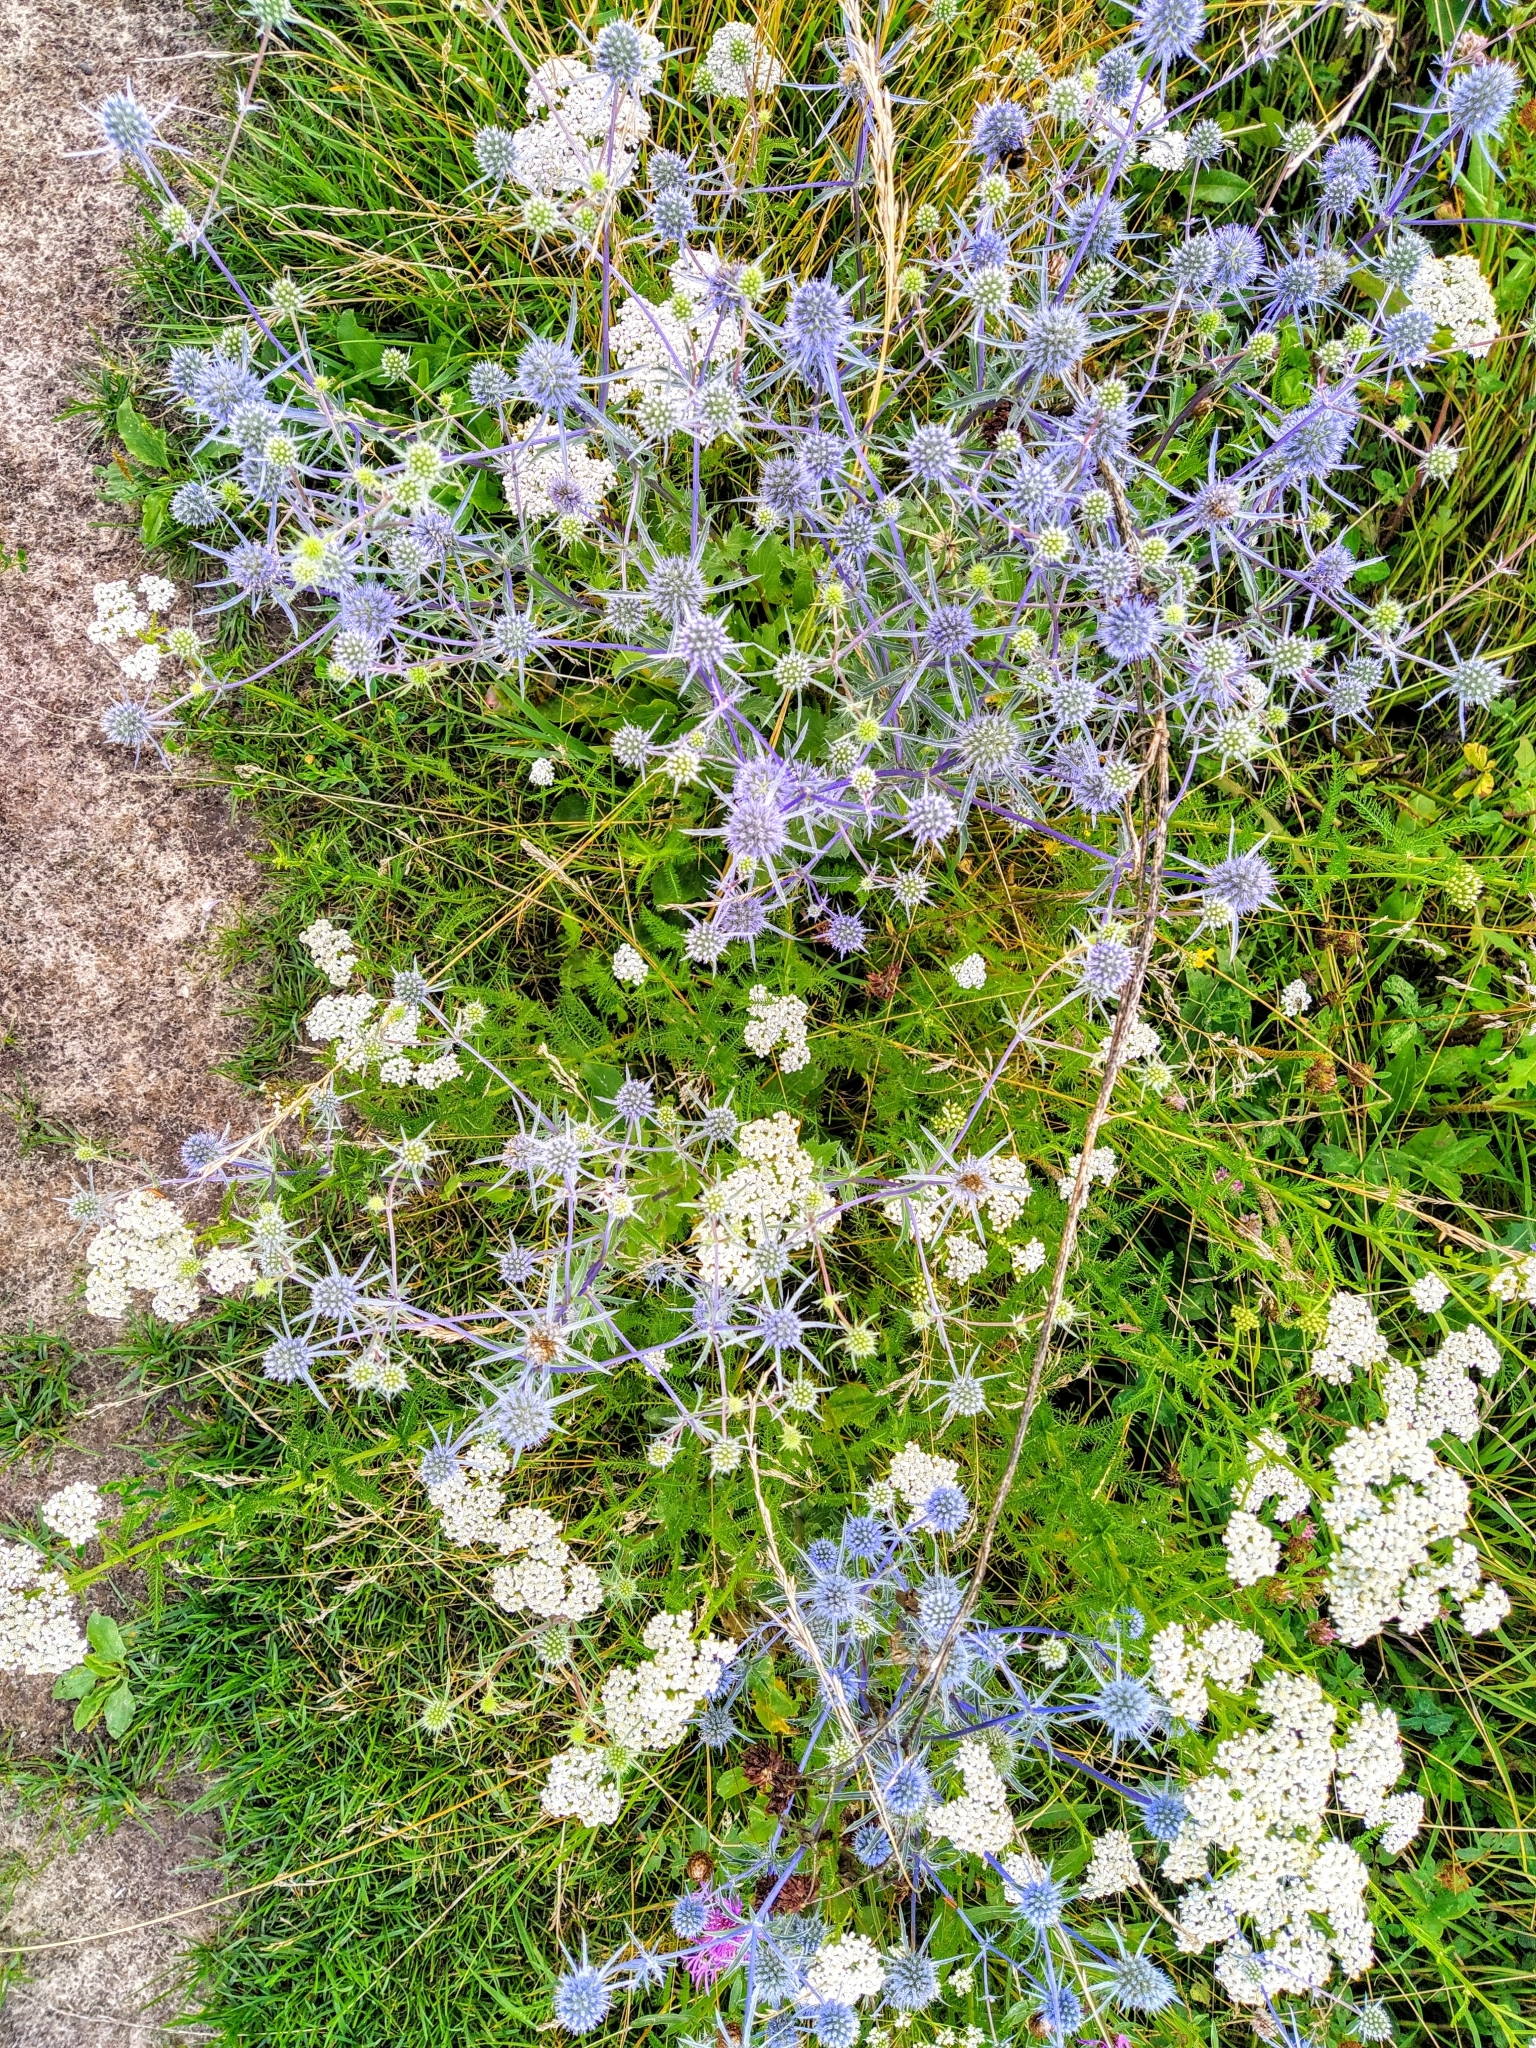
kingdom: Plantae
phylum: Tracheophyta
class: Magnoliopsida
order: Apiales
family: Apiaceae
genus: Eryngium
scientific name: Eryngium planum
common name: Blue eryngo
